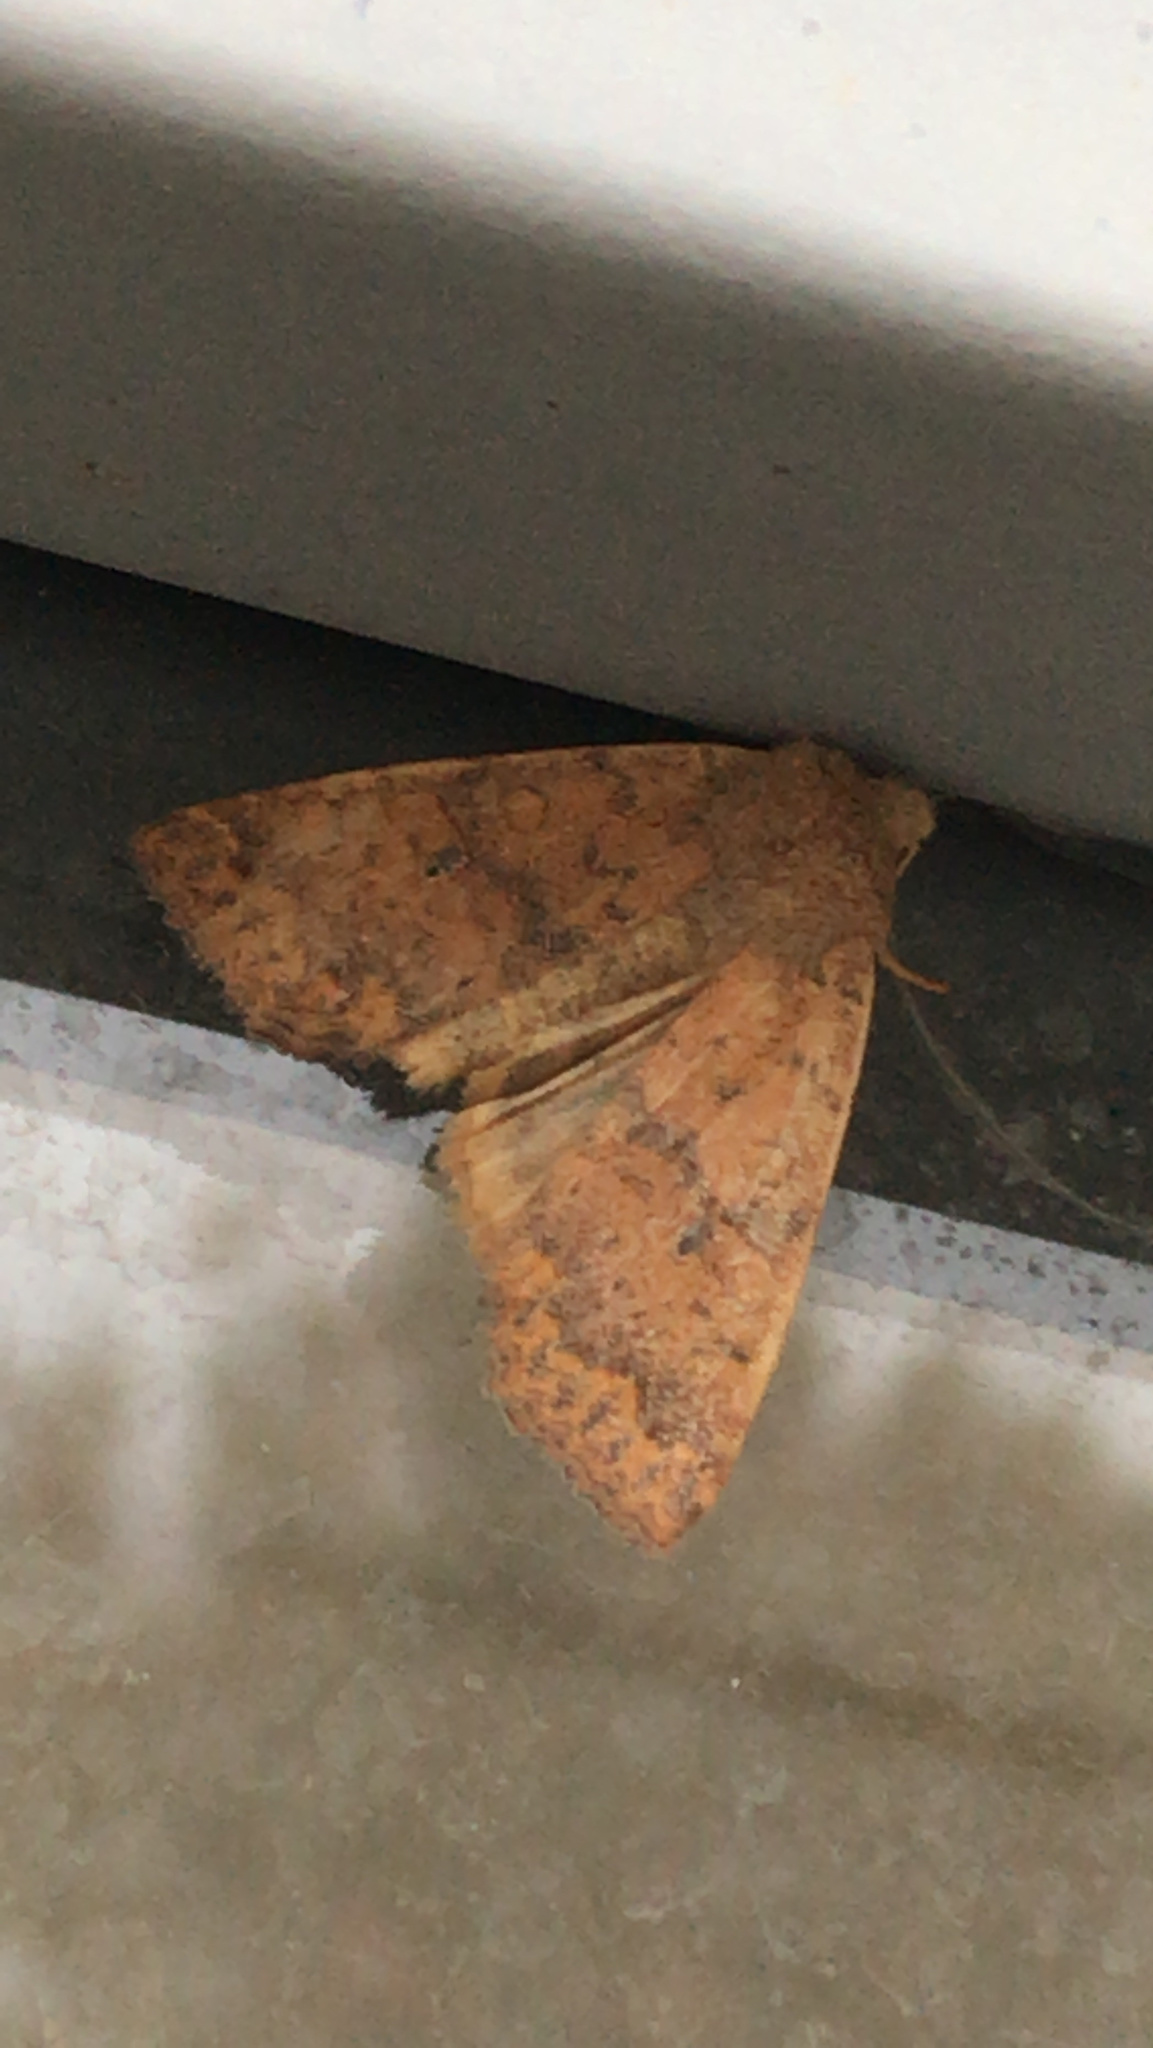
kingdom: Animalia
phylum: Arthropoda
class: Insecta
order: Lepidoptera
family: Noctuidae
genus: Agrochola
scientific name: Agrochola bicolorago
